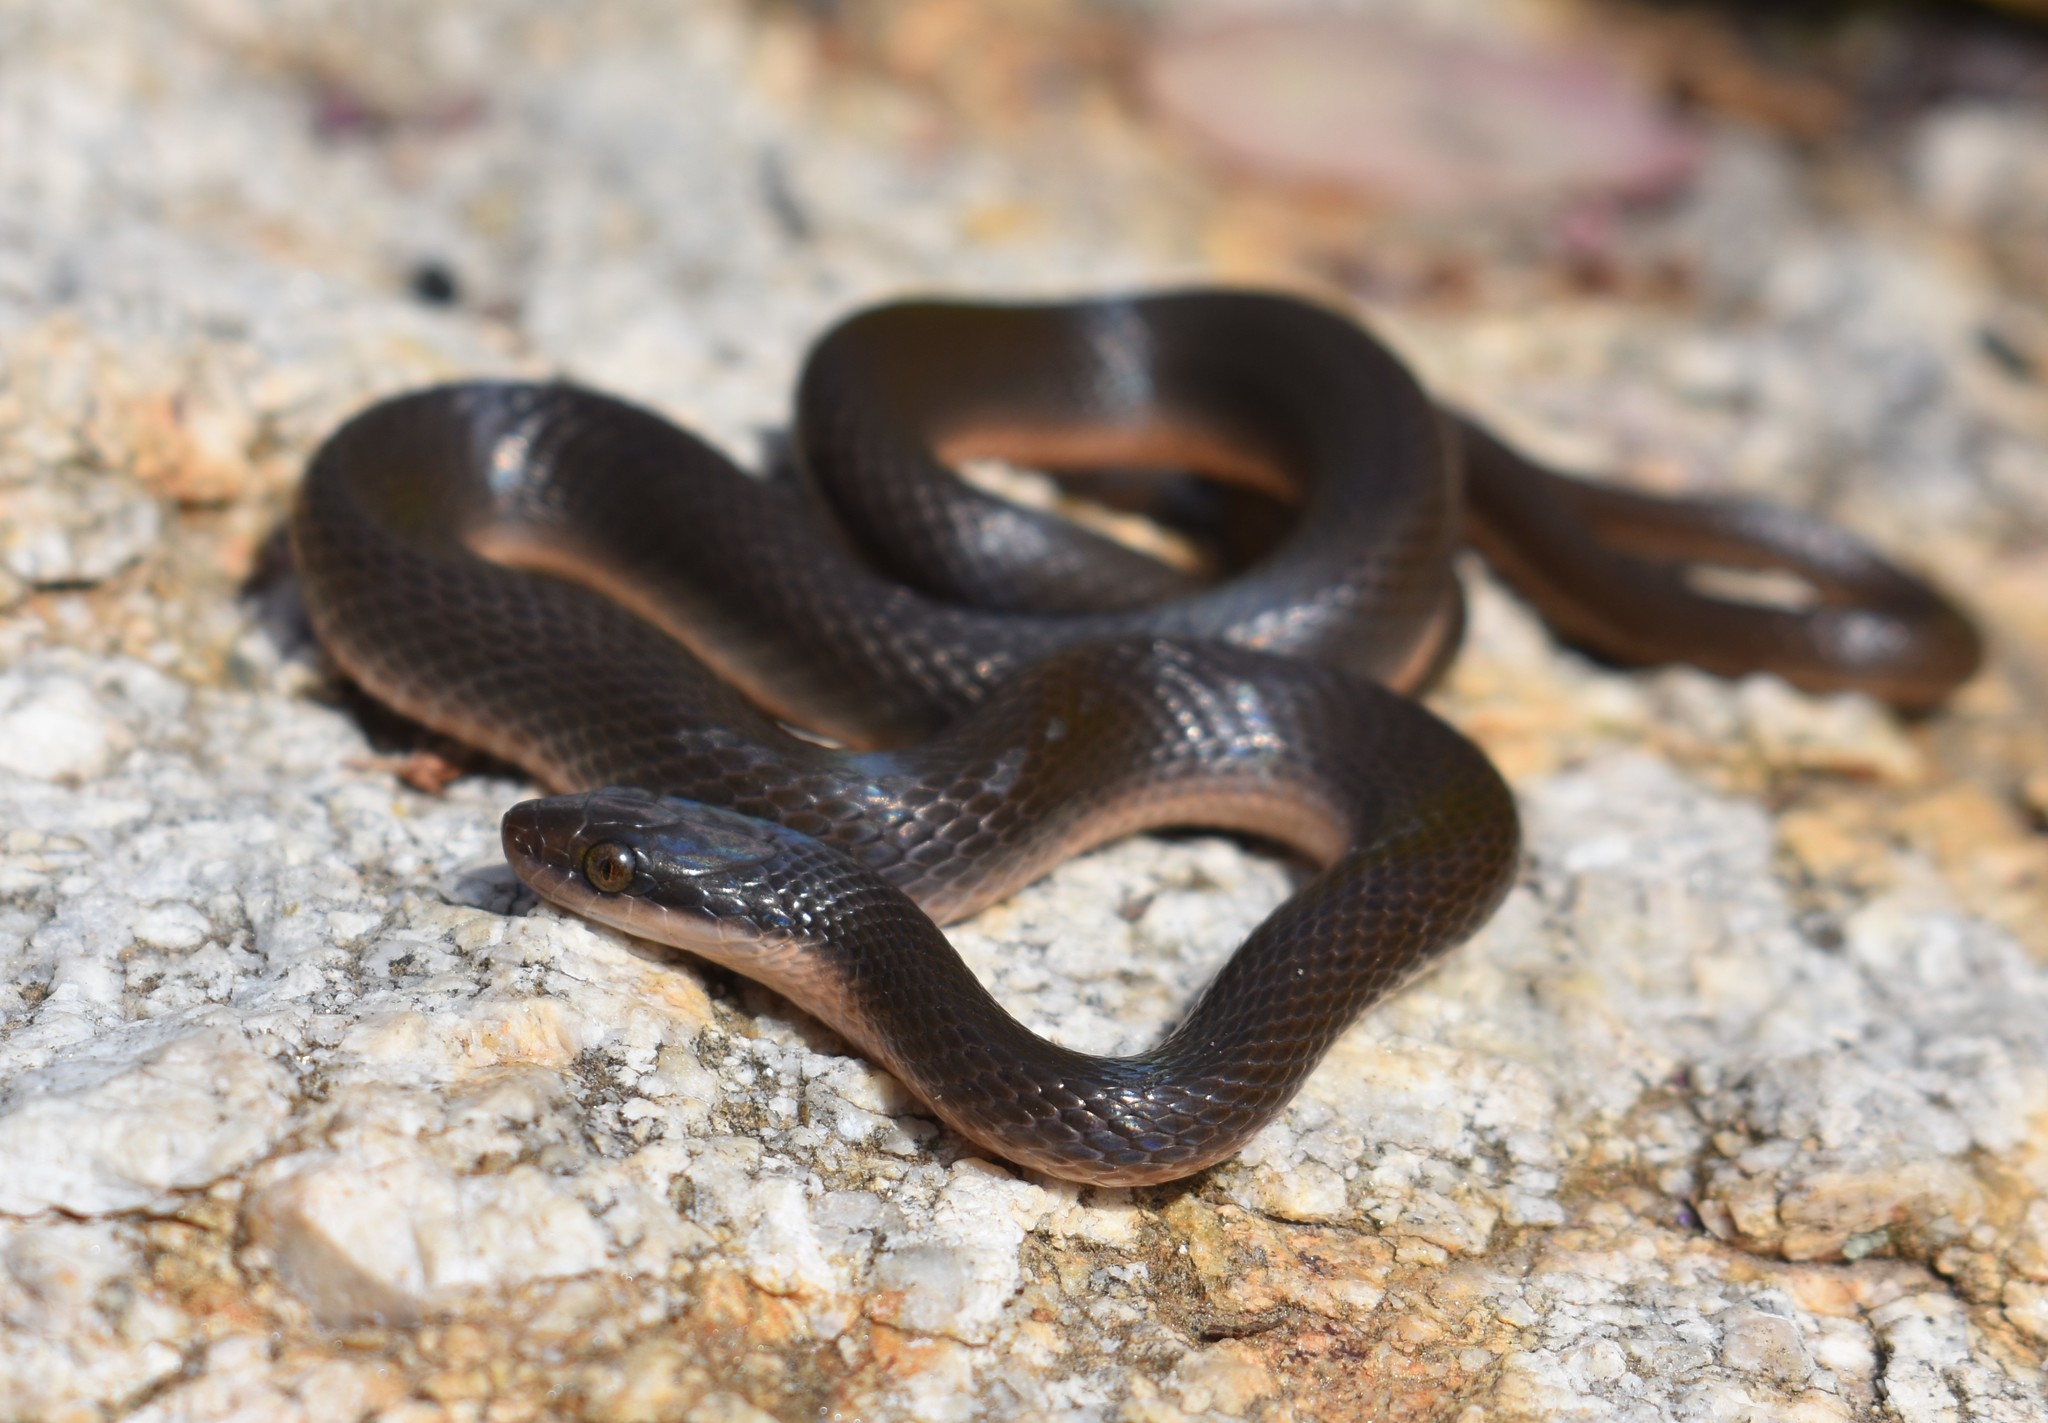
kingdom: Animalia
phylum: Chordata
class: Squamata
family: Lamprophiidae
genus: Lycodonomorphus
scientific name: Lycodonomorphus rufulus
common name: Brown water snake
